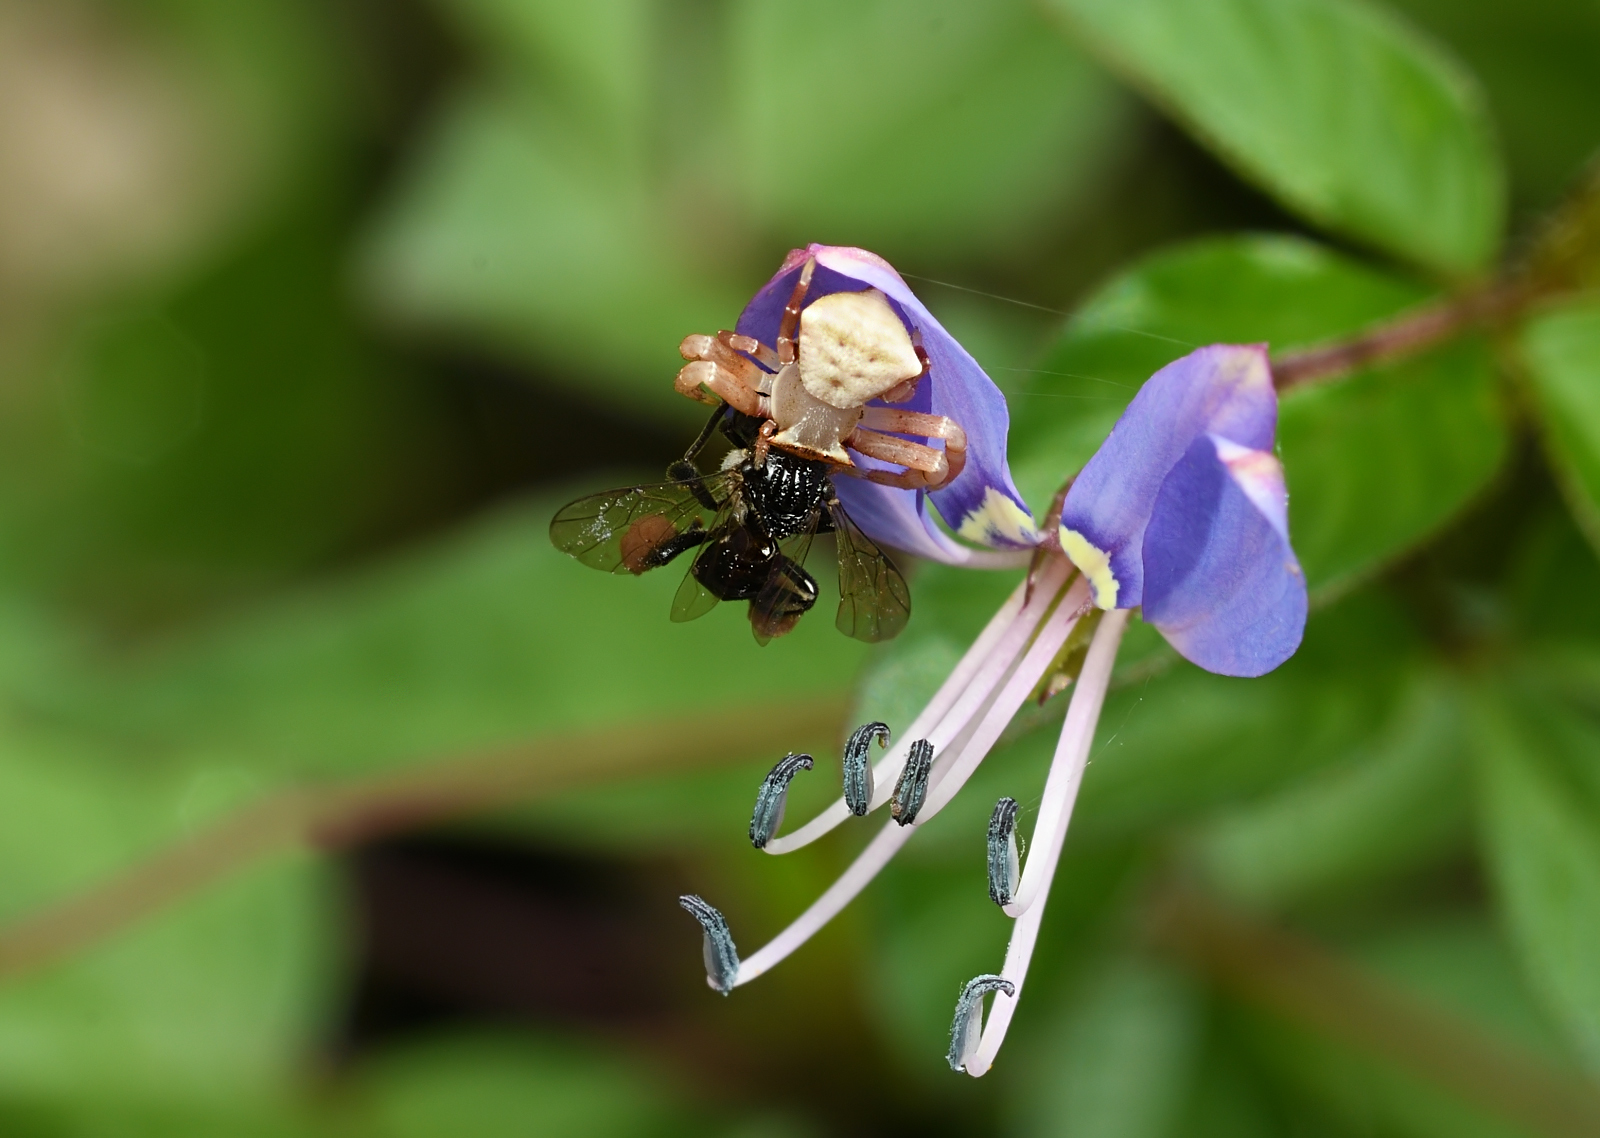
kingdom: Animalia
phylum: Arthropoda
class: Arachnida
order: Araneae
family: Thomisidae
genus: Thomisus
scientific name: Thomisus labefactus
